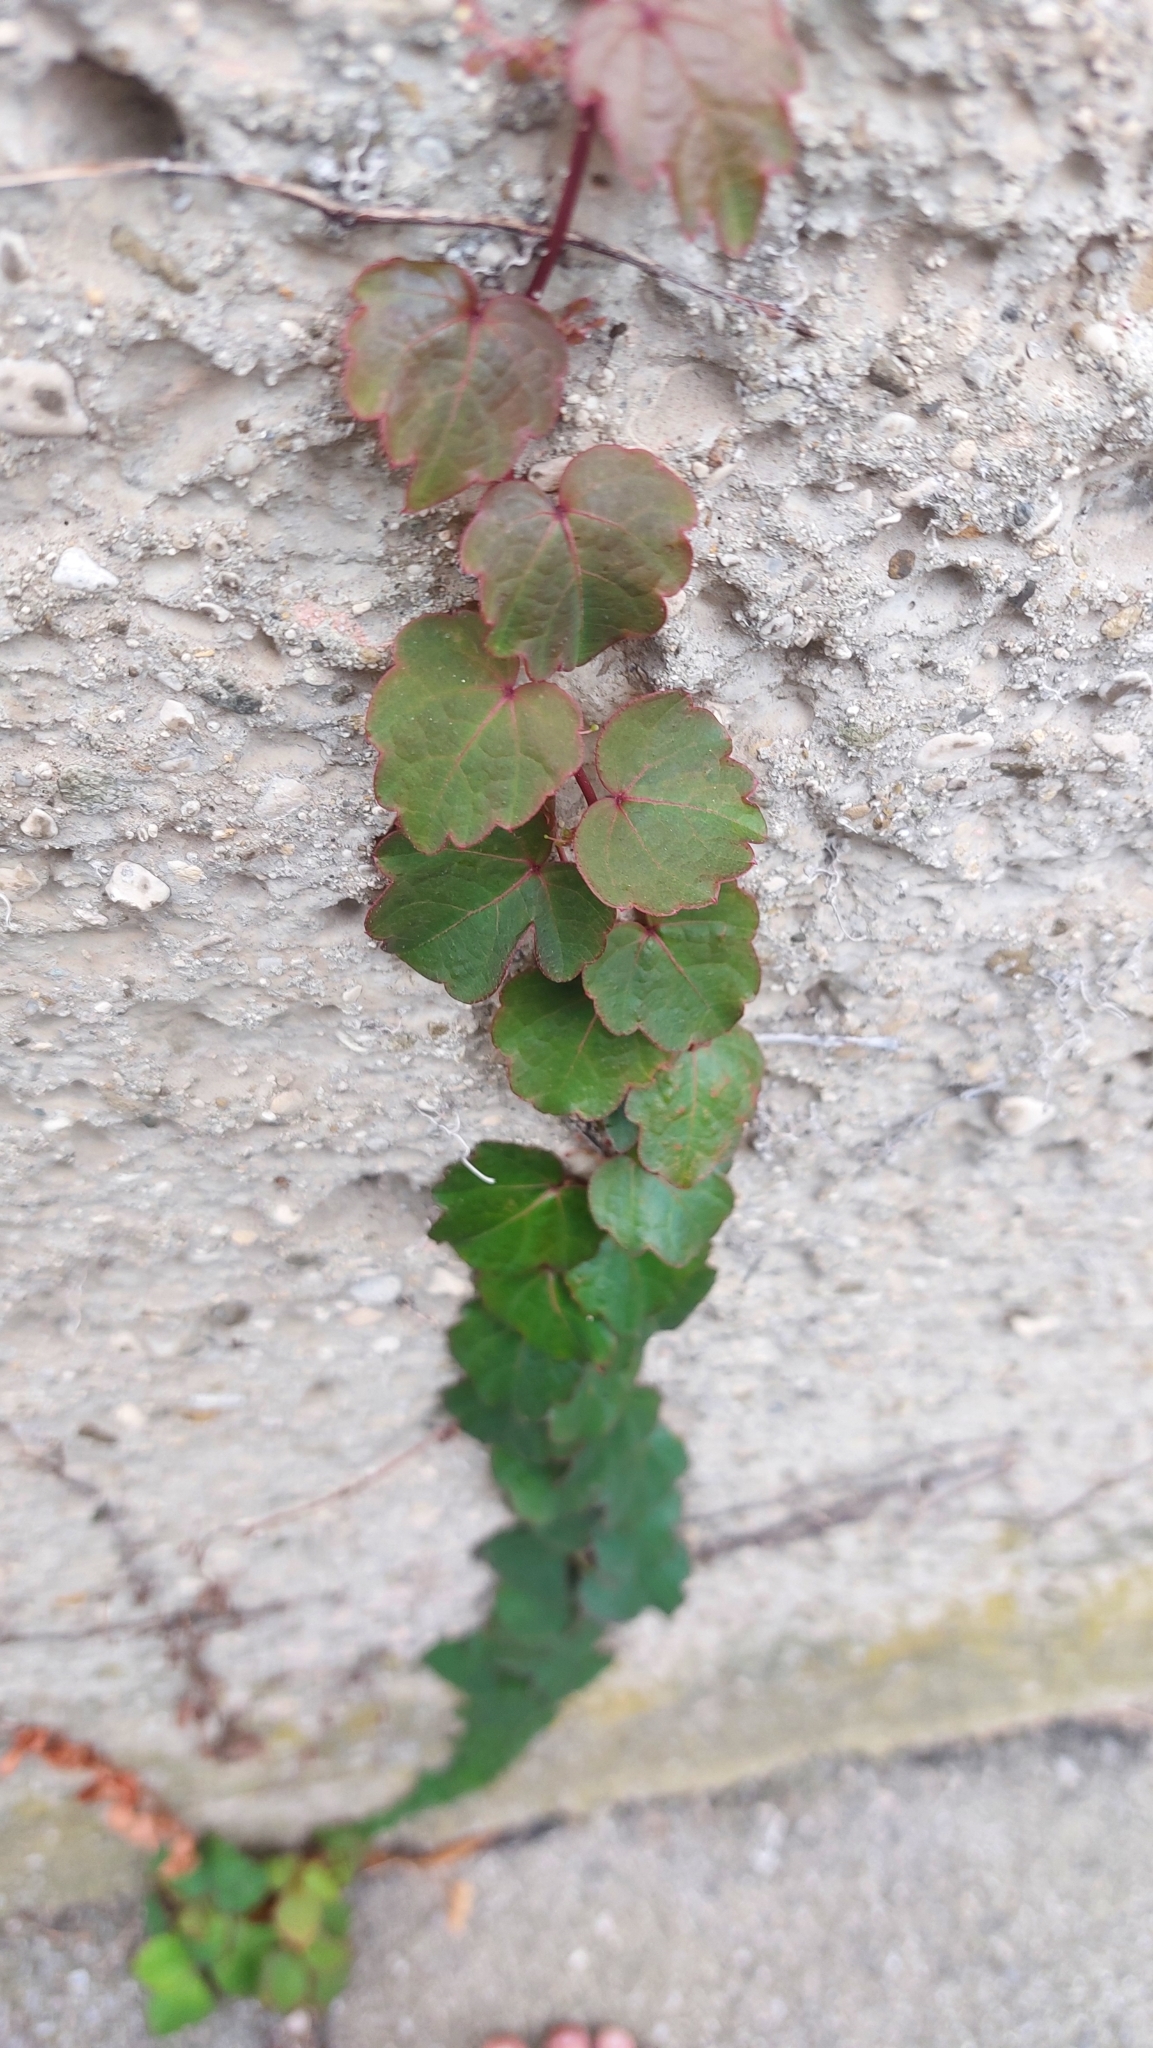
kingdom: Plantae
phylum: Tracheophyta
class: Magnoliopsida
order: Vitales
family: Vitaceae
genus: Parthenocissus
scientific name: Parthenocissus tricuspidata
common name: Boston ivy
